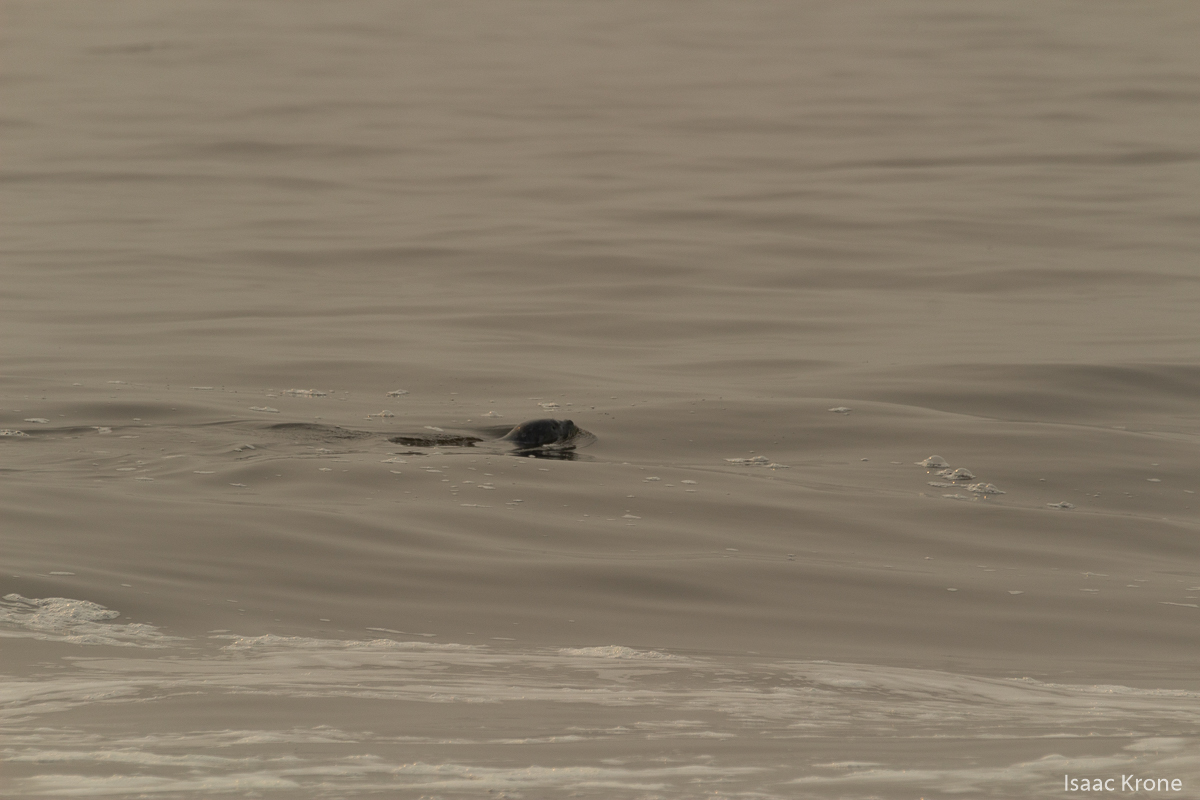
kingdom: Animalia
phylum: Chordata
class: Mammalia
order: Carnivora
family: Phocidae
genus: Phoca
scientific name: Phoca vitulina
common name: Harbor seal
